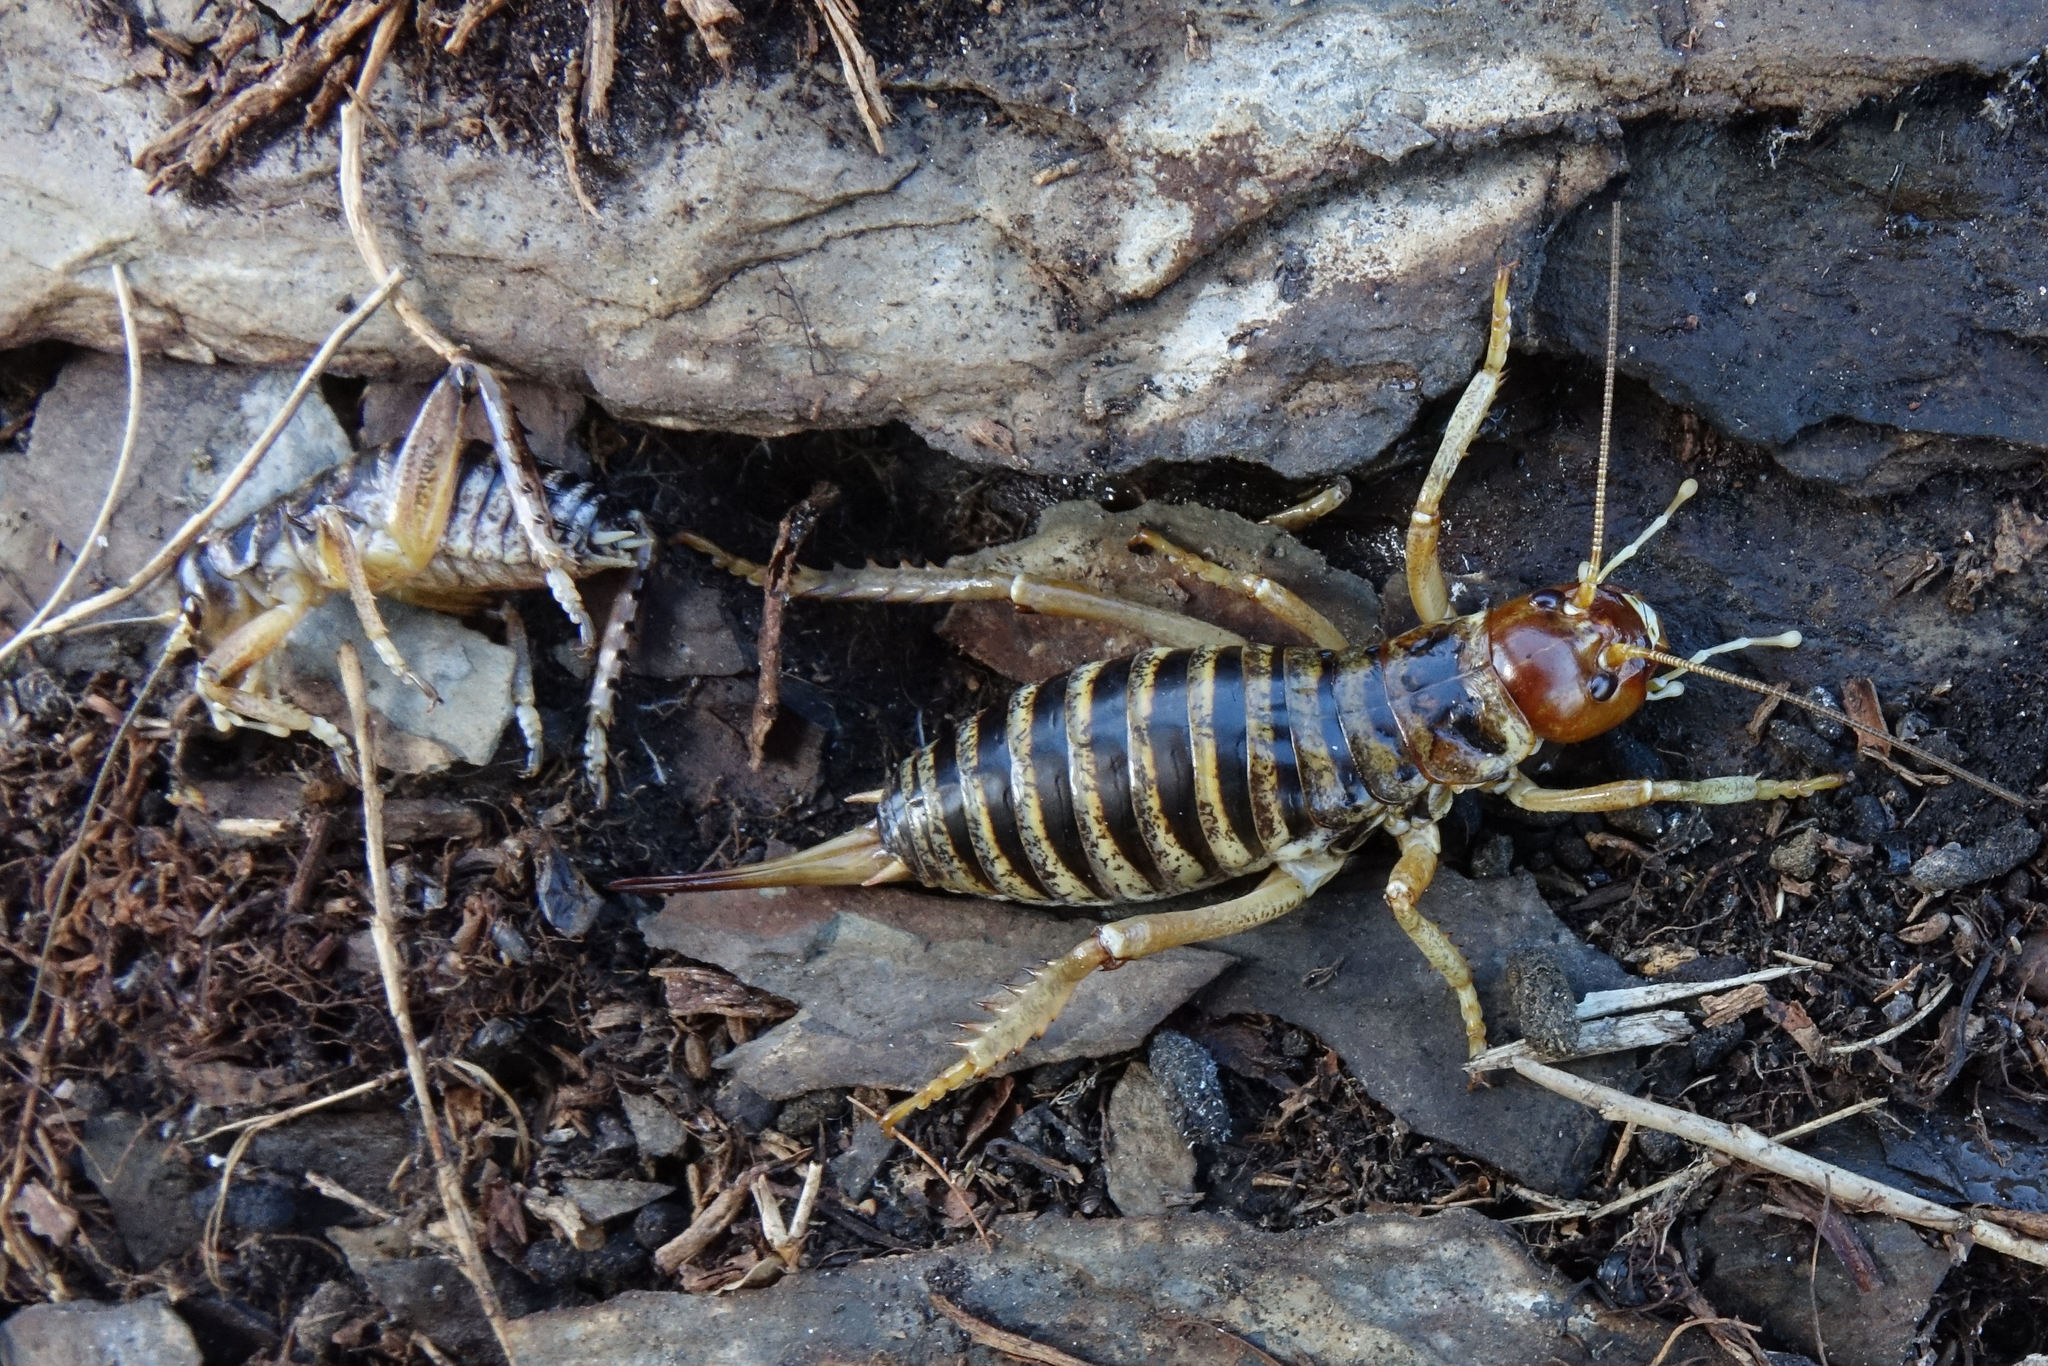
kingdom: Animalia
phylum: Arthropoda
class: Insecta
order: Orthoptera
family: Anostostomatidae
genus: Hemideina
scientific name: Hemideina maori
